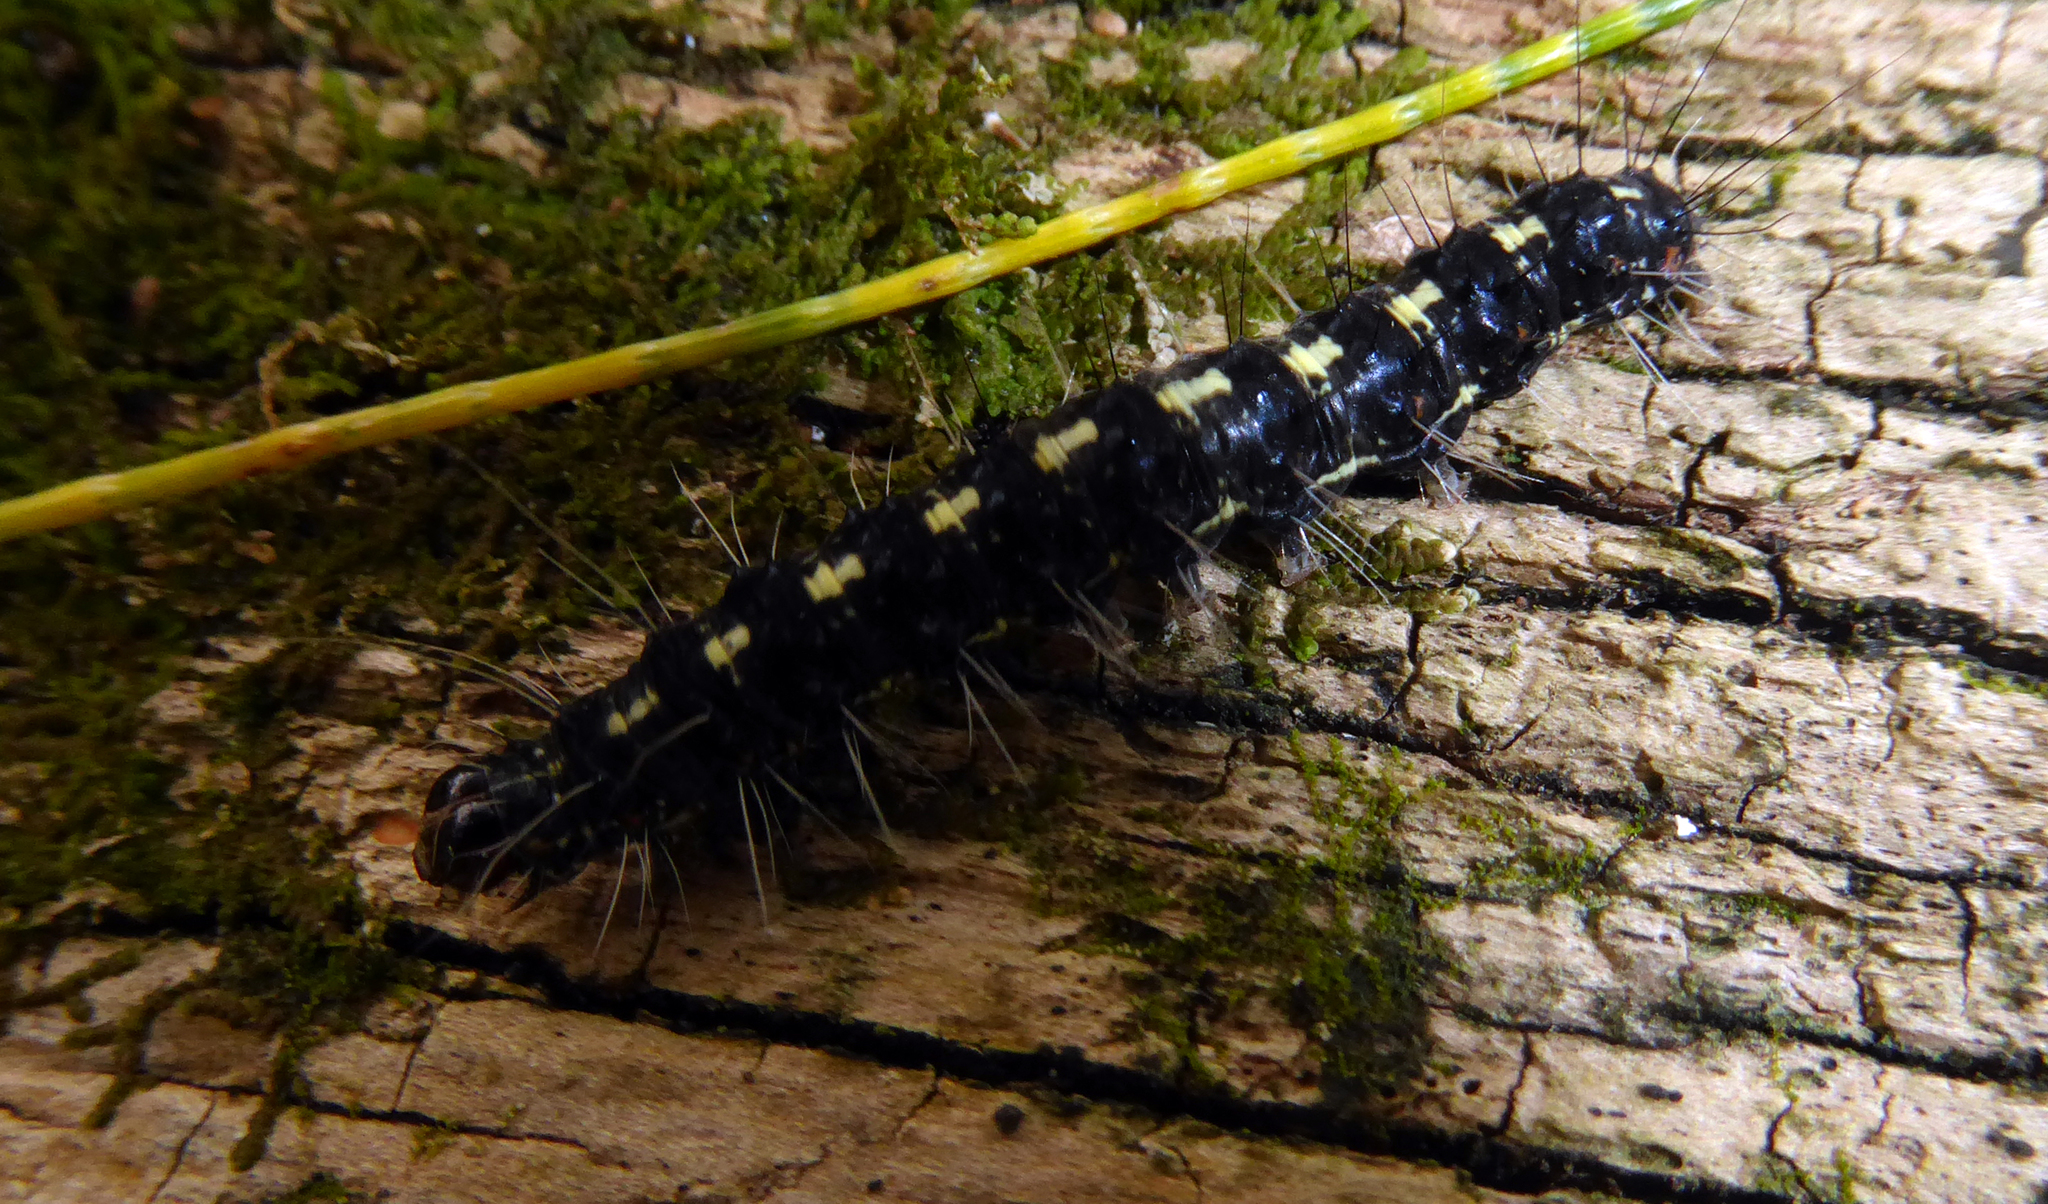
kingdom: Animalia
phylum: Arthropoda
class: Insecta
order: Lepidoptera
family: Erebidae
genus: Utetheisa
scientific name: Utetheisa pulchelloides
